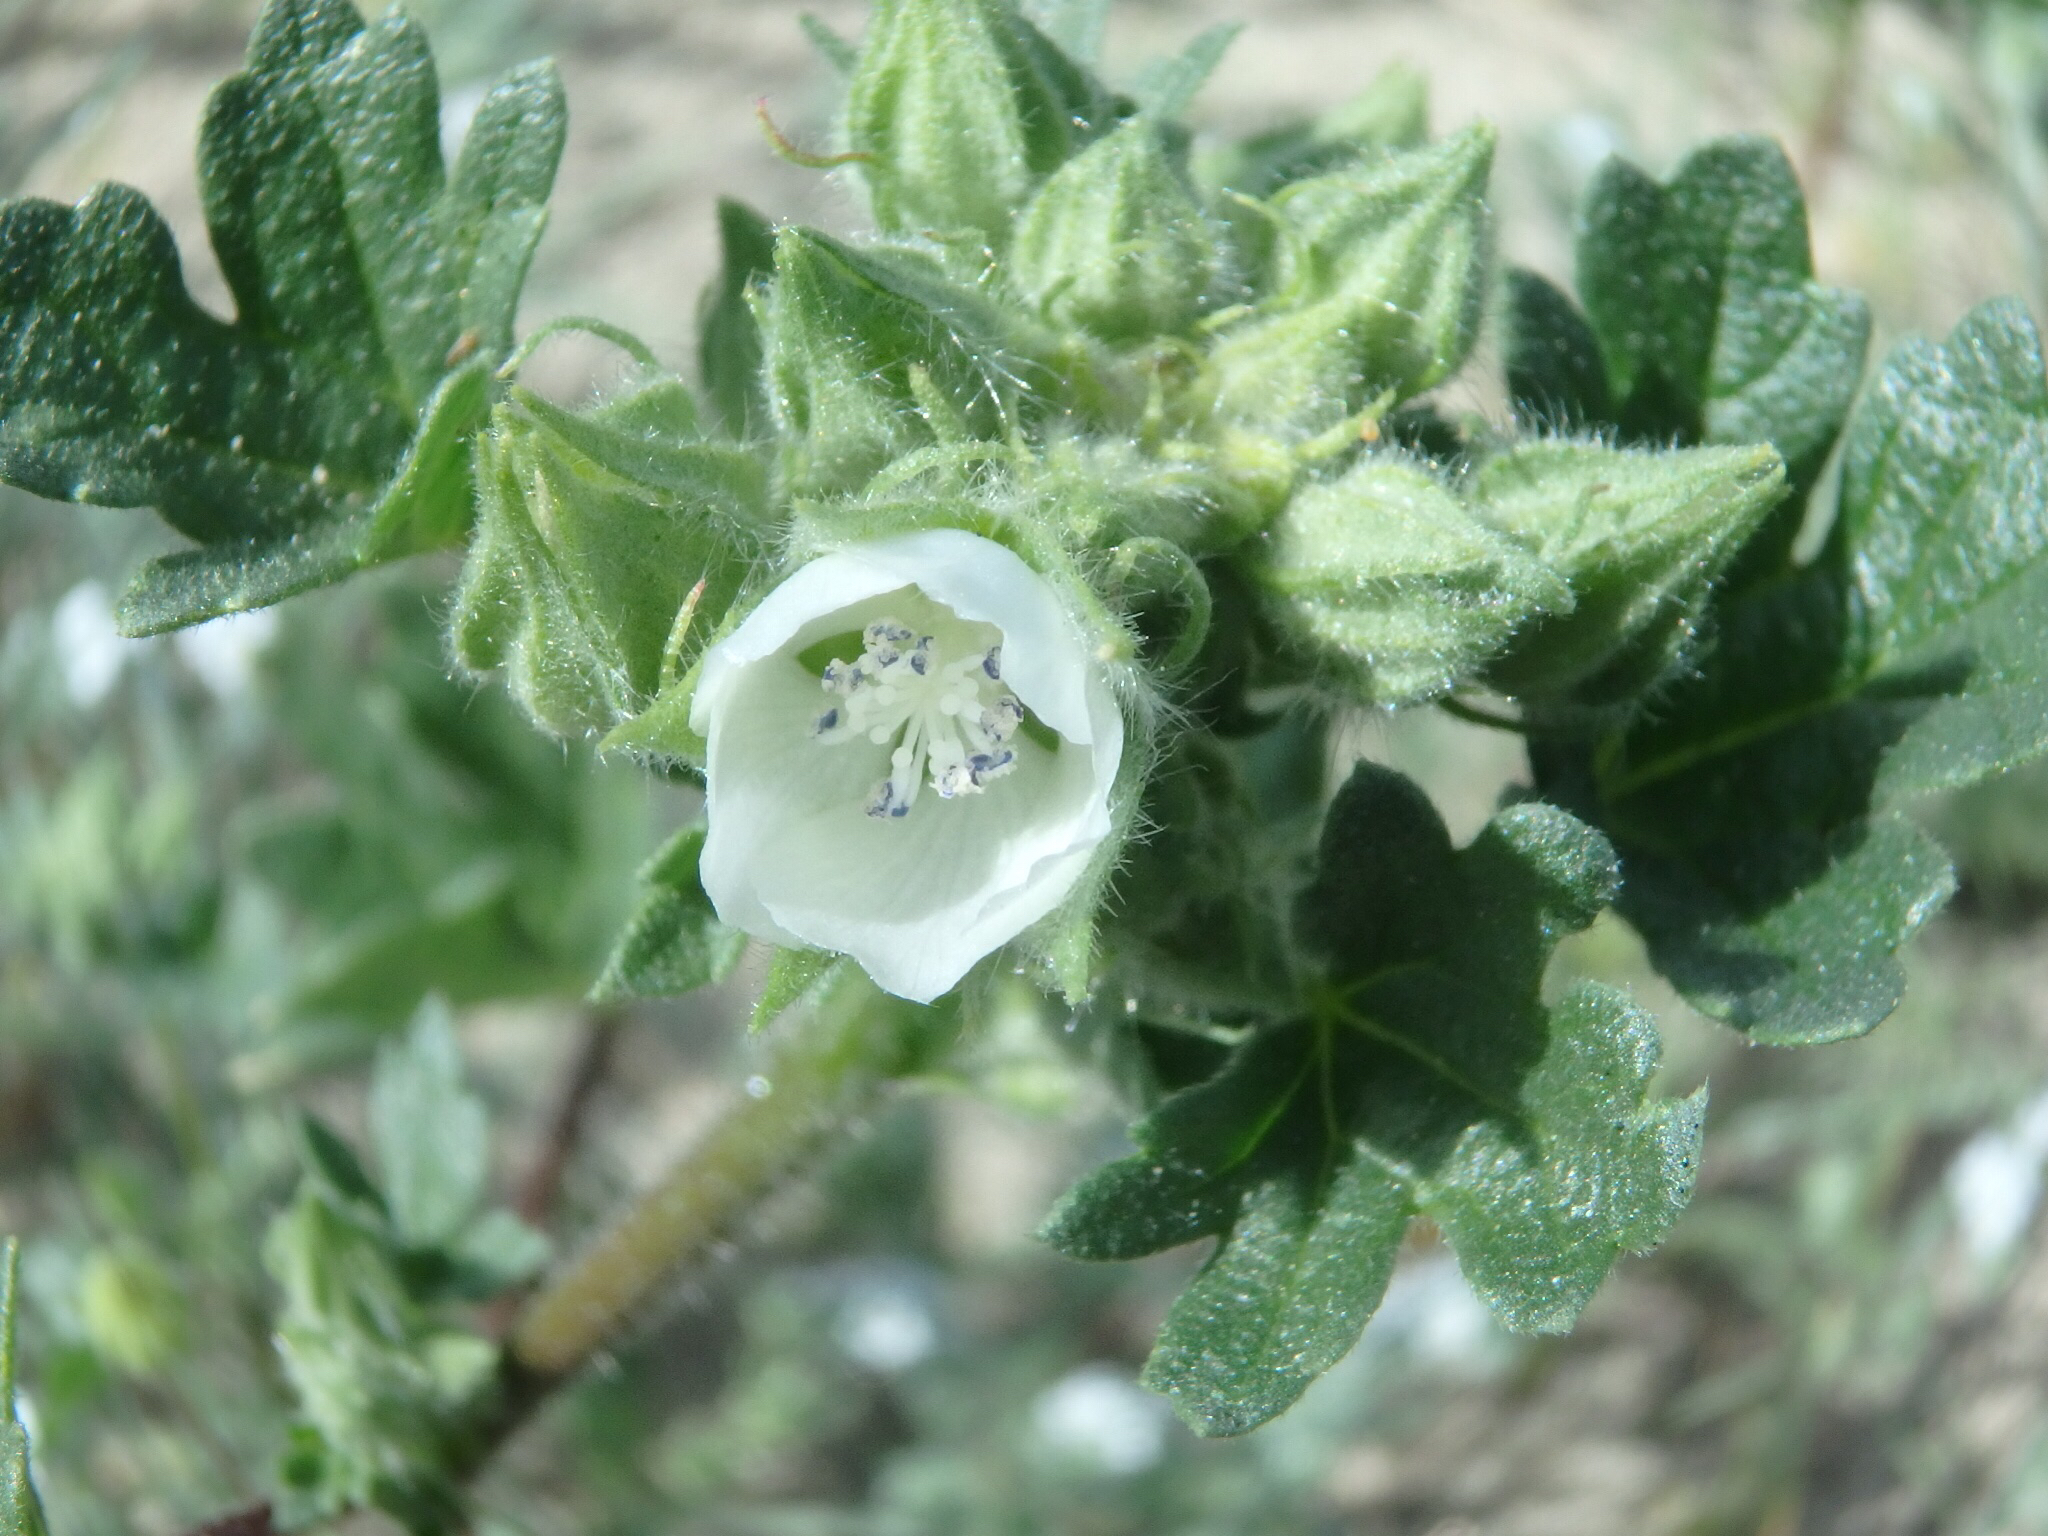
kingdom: Plantae
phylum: Tracheophyta
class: Magnoliopsida
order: Malvales
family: Malvaceae
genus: Eremalche
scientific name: Eremalche exilis
